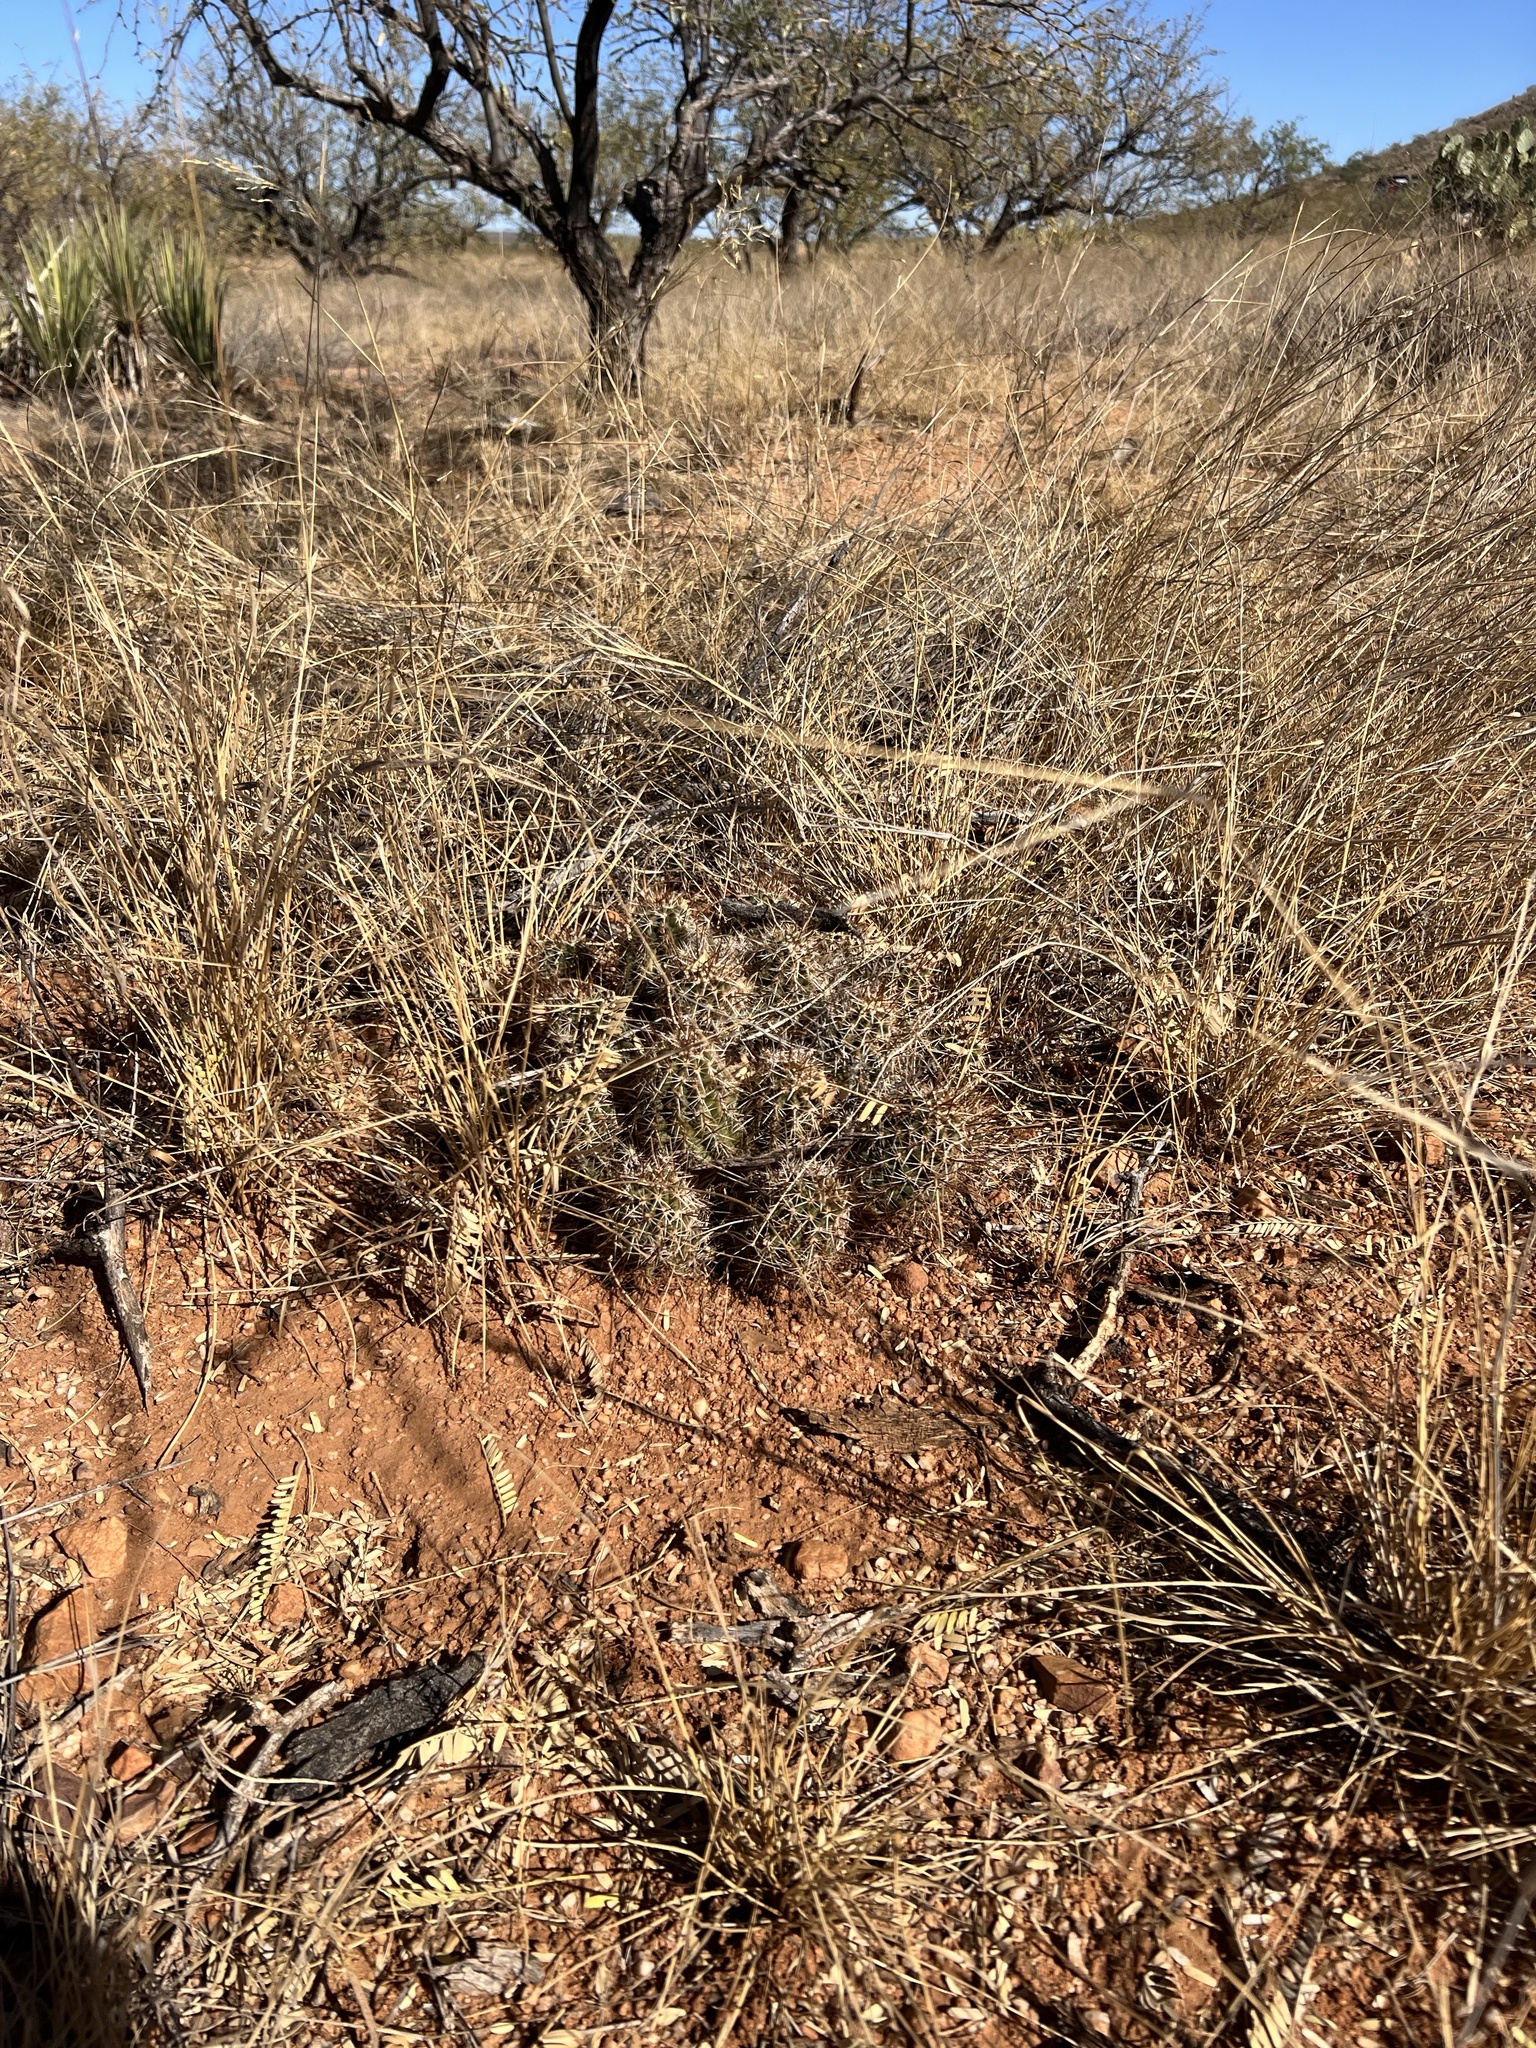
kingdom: Plantae
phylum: Tracheophyta
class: Magnoliopsida
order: Caryophyllales
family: Cactaceae
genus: Echinocereus
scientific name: Echinocereus fasciculatus
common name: Bundle hedgehog
